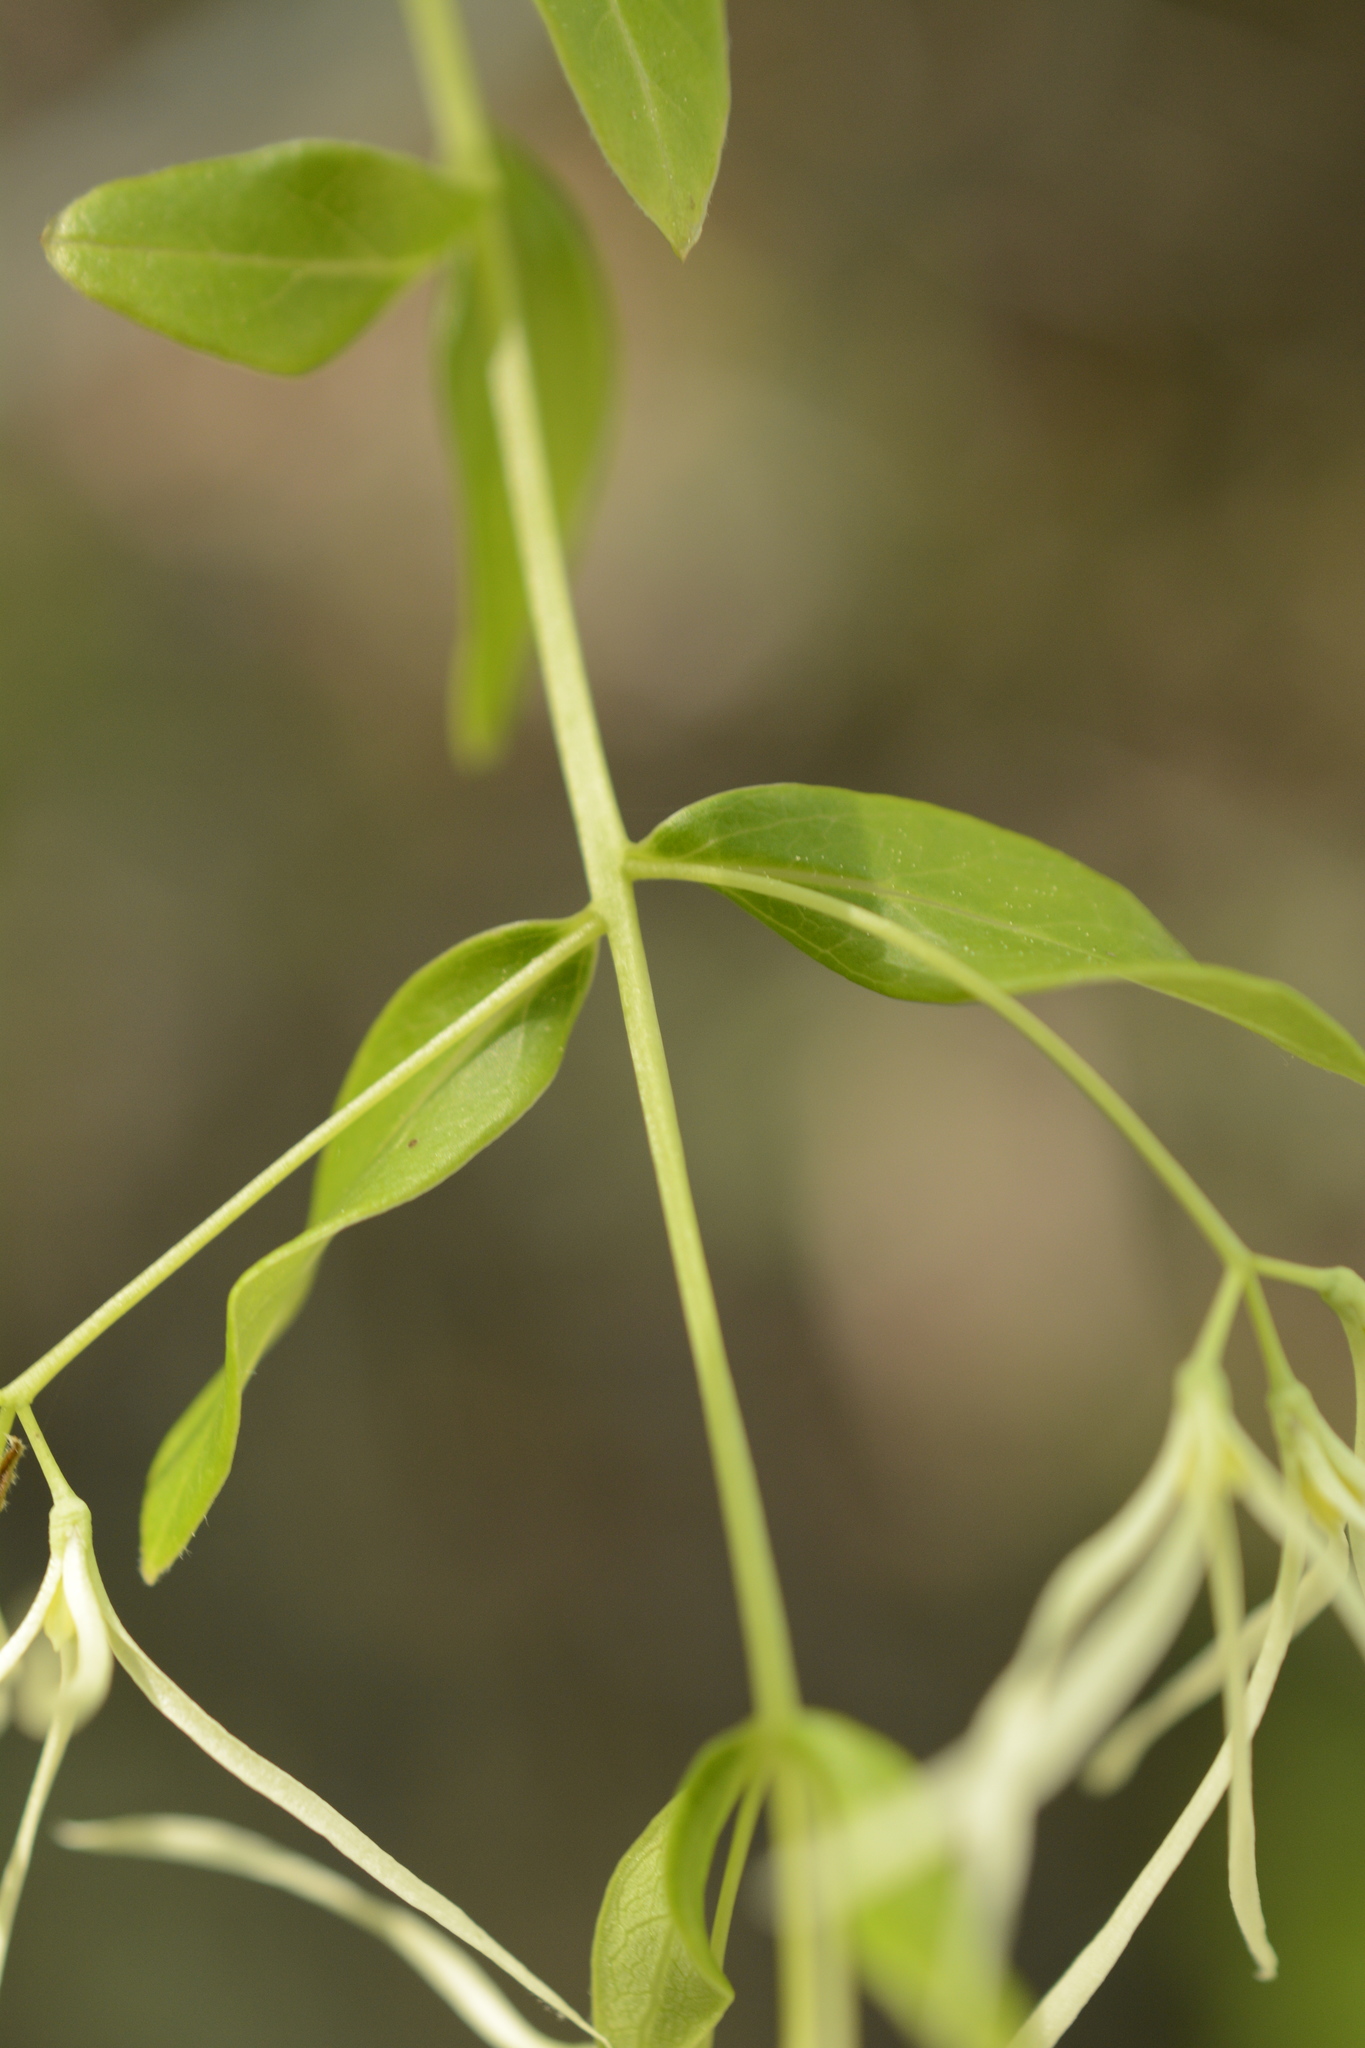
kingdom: Plantae
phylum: Tracheophyta
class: Magnoliopsida
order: Lamiales
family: Oleaceae
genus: Chionanthus
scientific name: Chionanthus virginicus
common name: American fringetree
